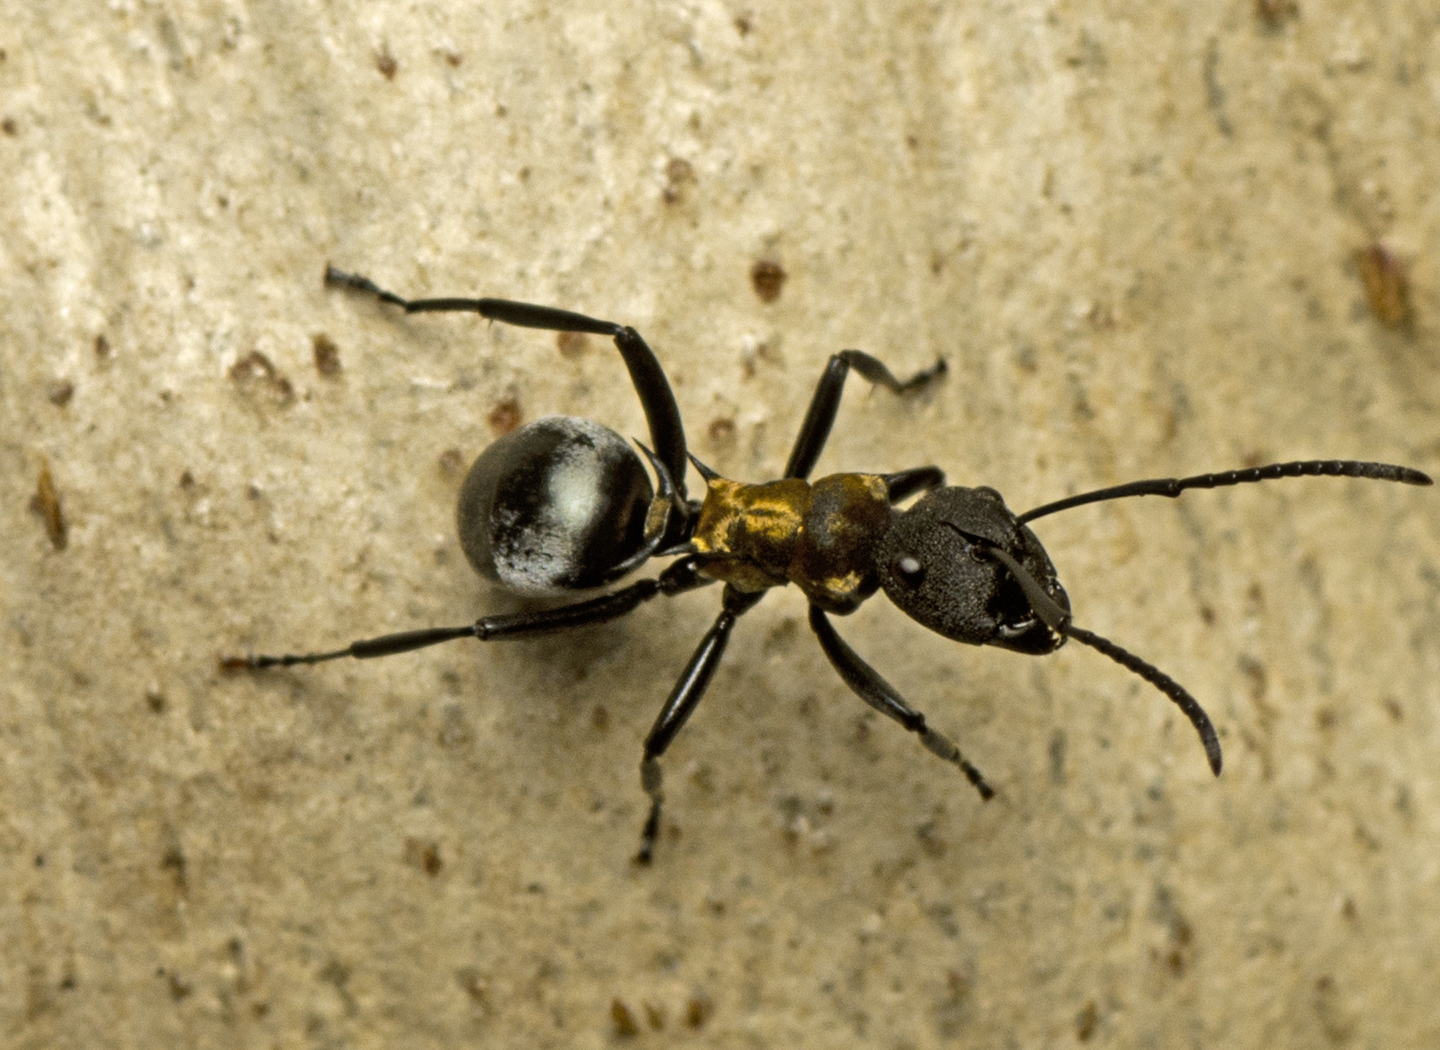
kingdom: Animalia
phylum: Arthropoda
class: Insecta
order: Hymenoptera
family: Formicidae
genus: Polyrhachis
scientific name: Polyrhachis ornata
